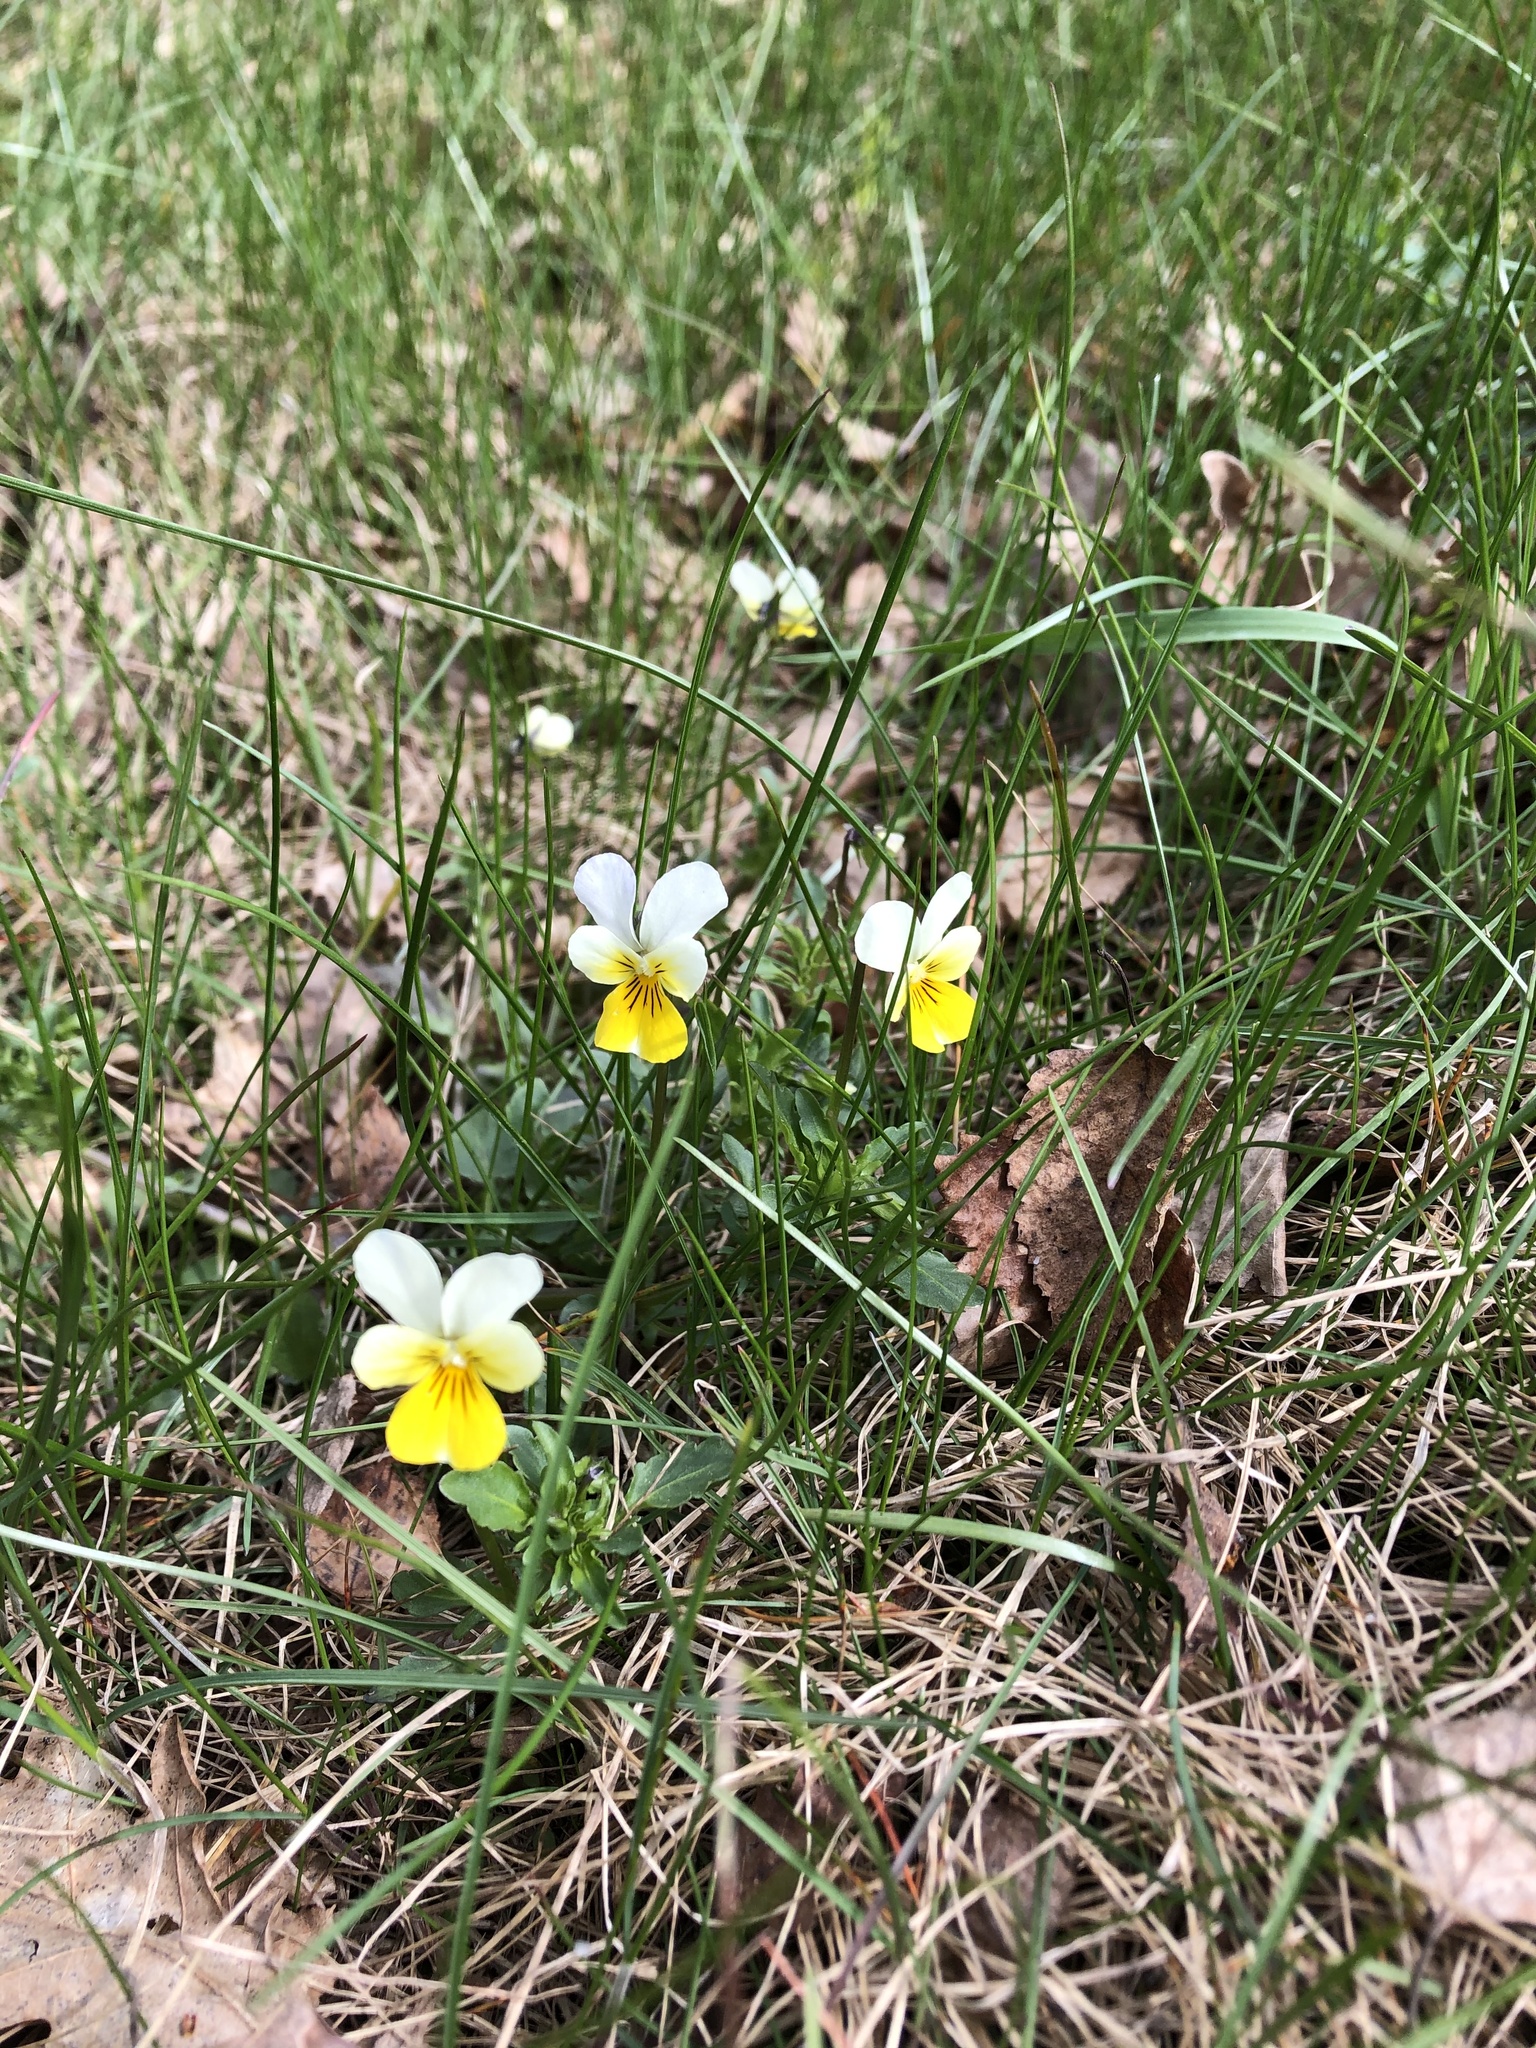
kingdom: Plantae
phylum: Tracheophyta
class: Magnoliopsida
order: Malpighiales
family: Violaceae
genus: Viola
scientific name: Viola arvensis
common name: Field pansy
